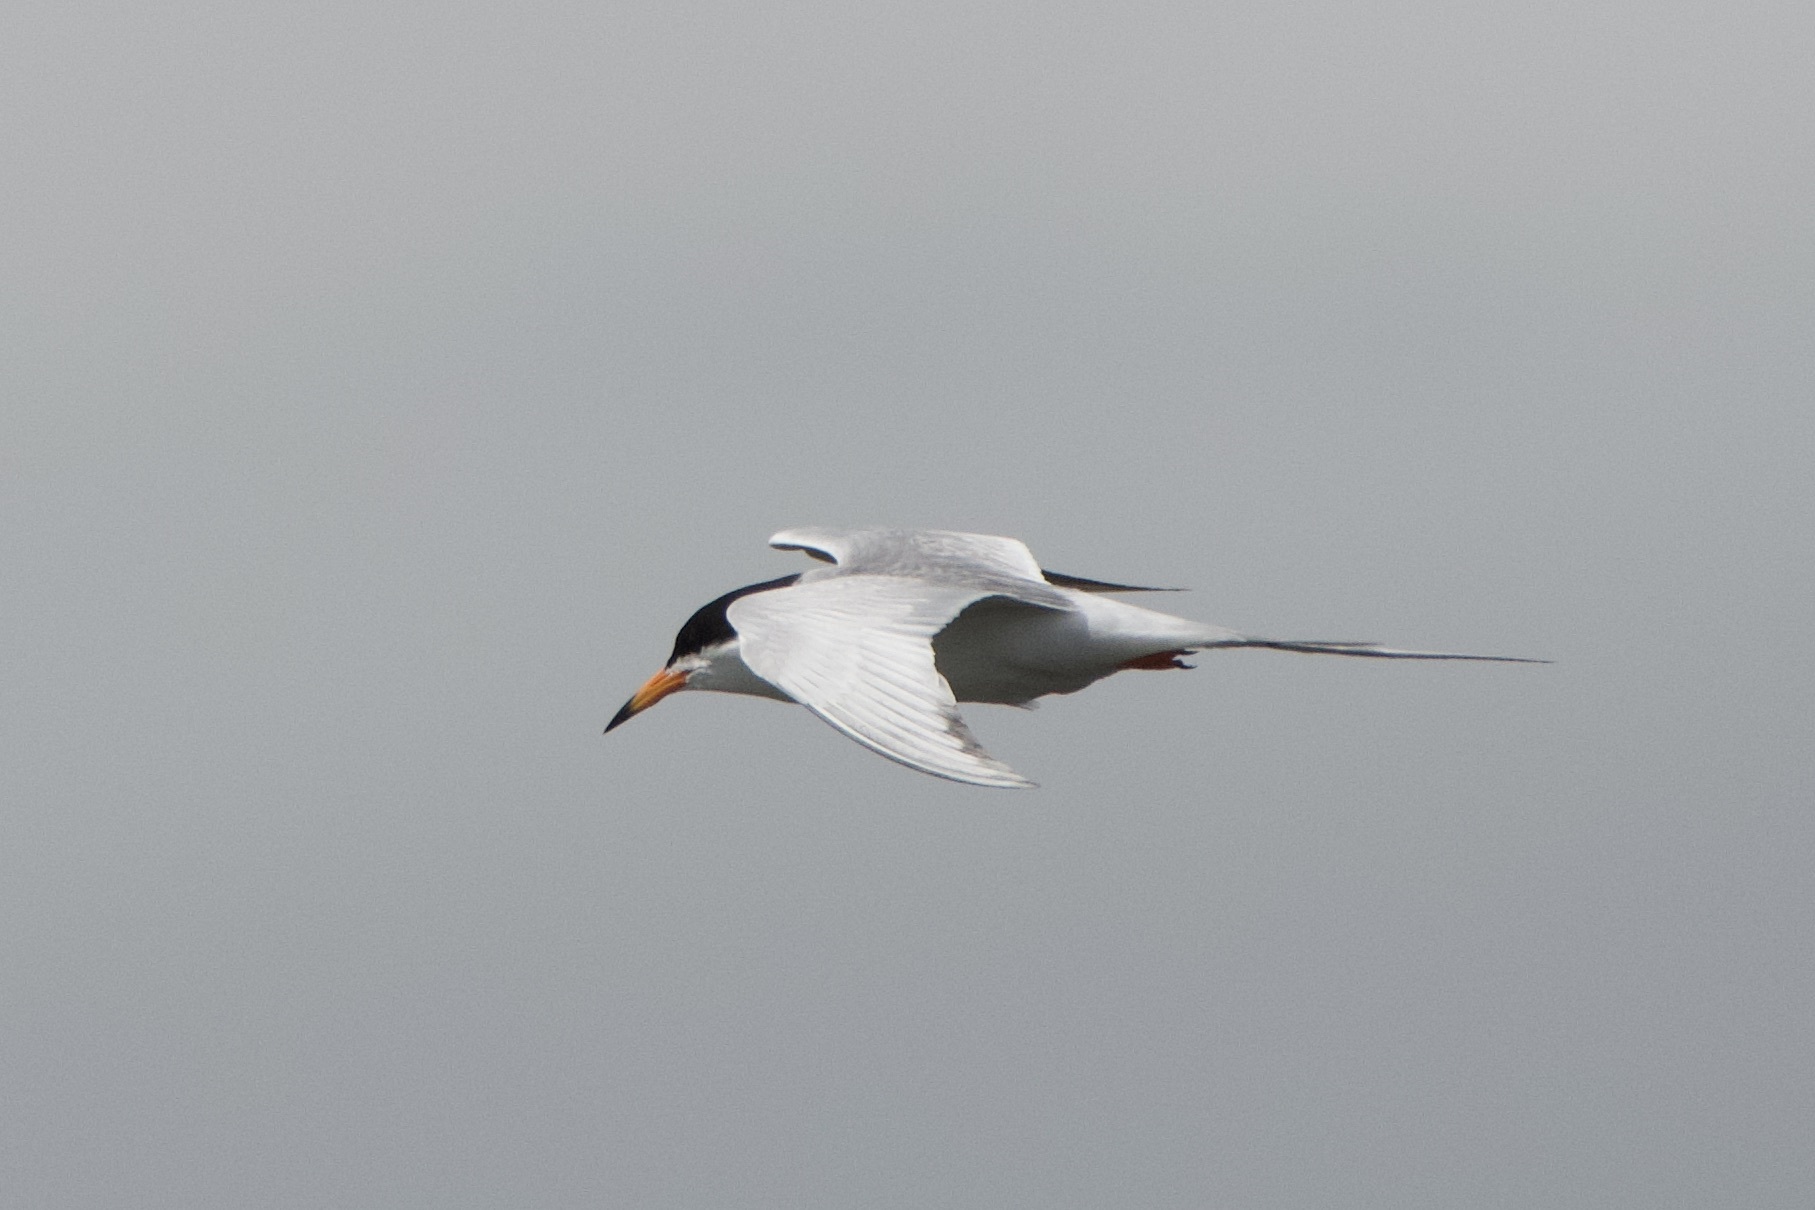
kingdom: Animalia
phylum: Chordata
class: Aves
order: Charadriiformes
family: Laridae
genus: Sterna
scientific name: Sterna forsteri
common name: Forster's tern
